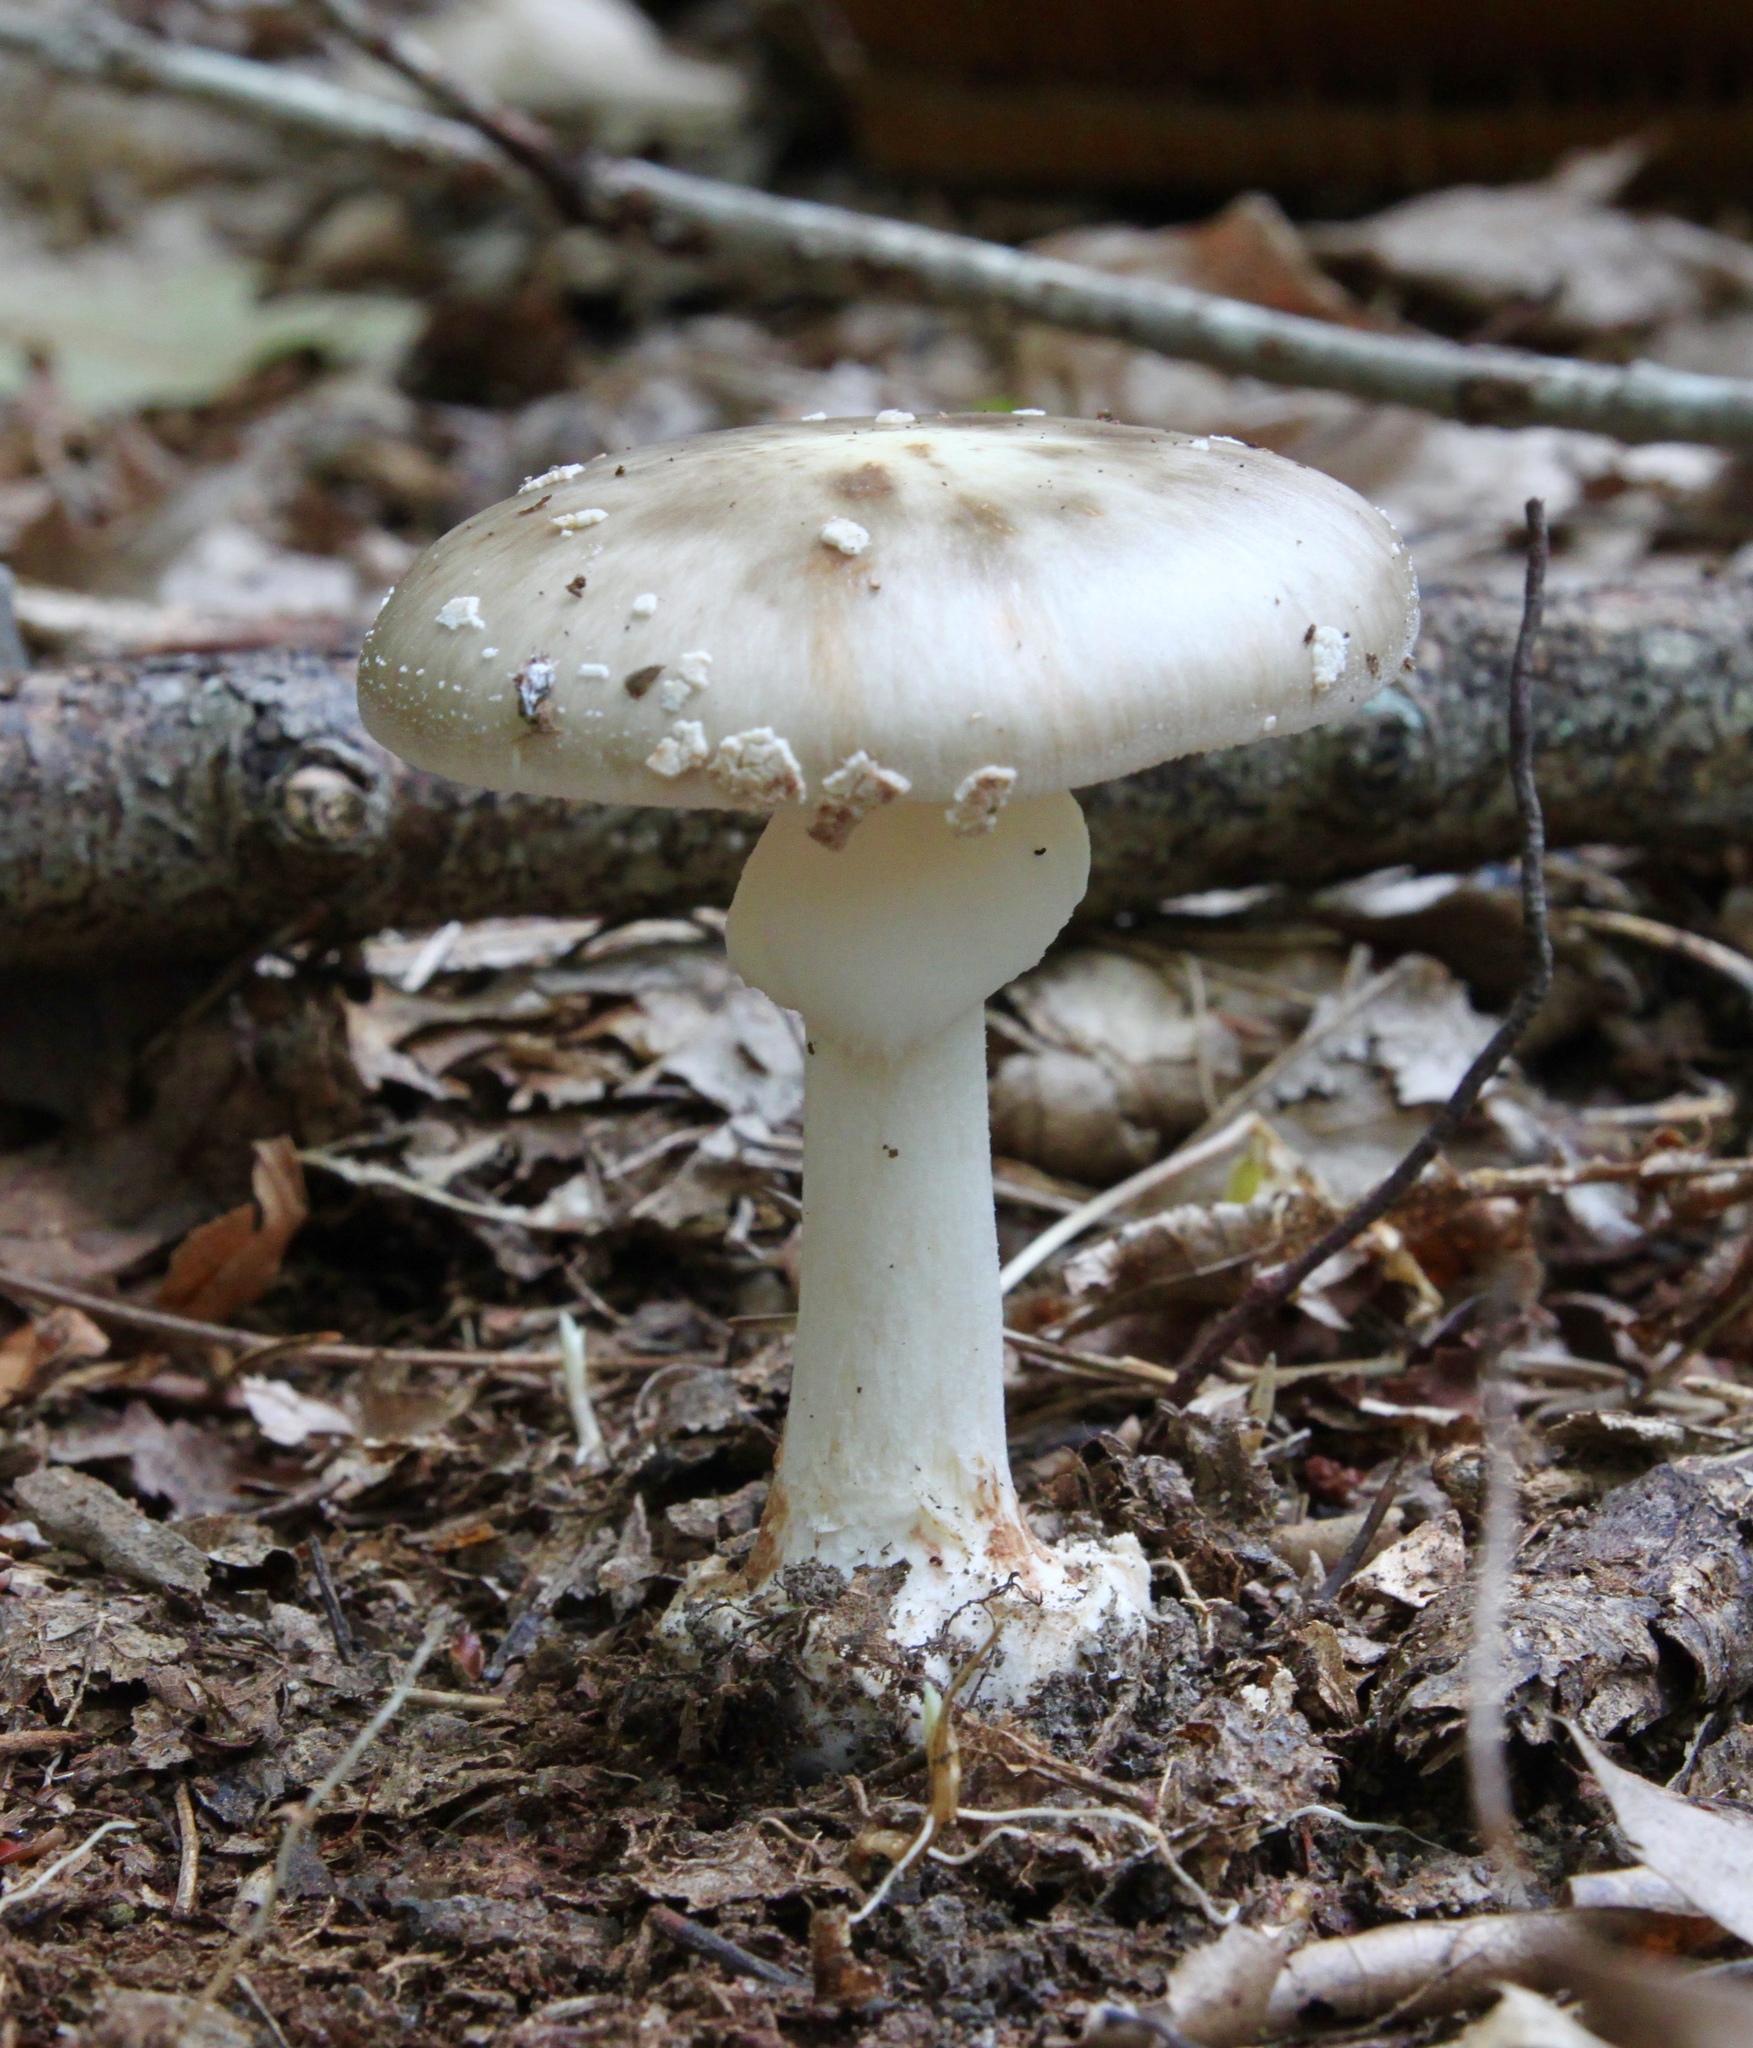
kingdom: Fungi
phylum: Basidiomycota
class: Agaricomycetes
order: Agaricales
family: Amanitaceae
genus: Amanita
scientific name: Amanita brunnescens
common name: Brown american star-footed amanita
